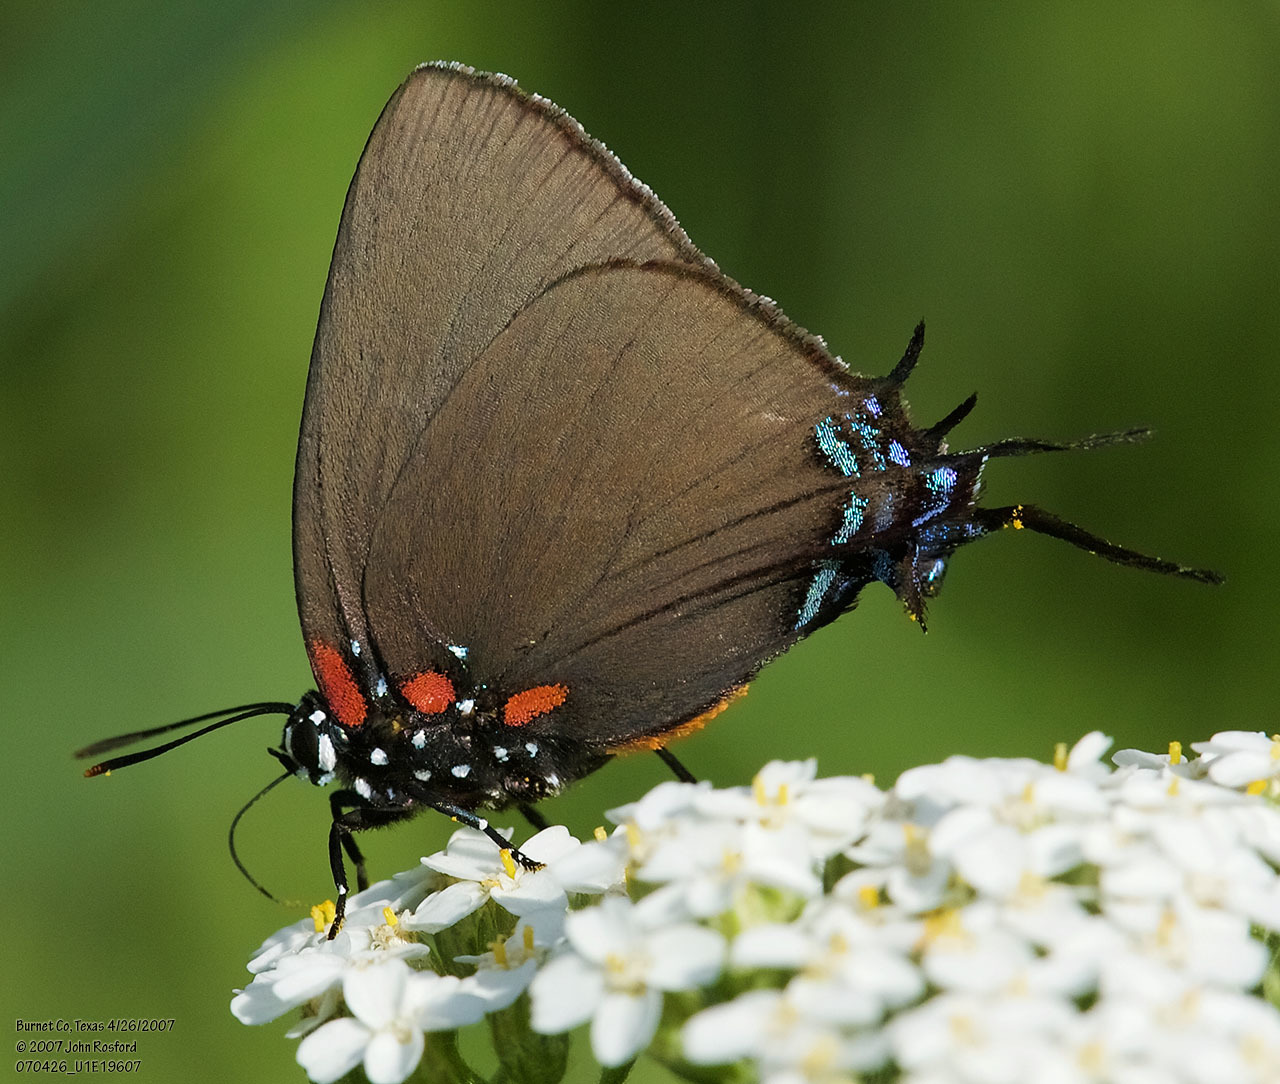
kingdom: Animalia
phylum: Arthropoda
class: Insecta
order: Lepidoptera
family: Lycaenidae
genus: Atlides
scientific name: Atlides halesus
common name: Great purple hairstreak
